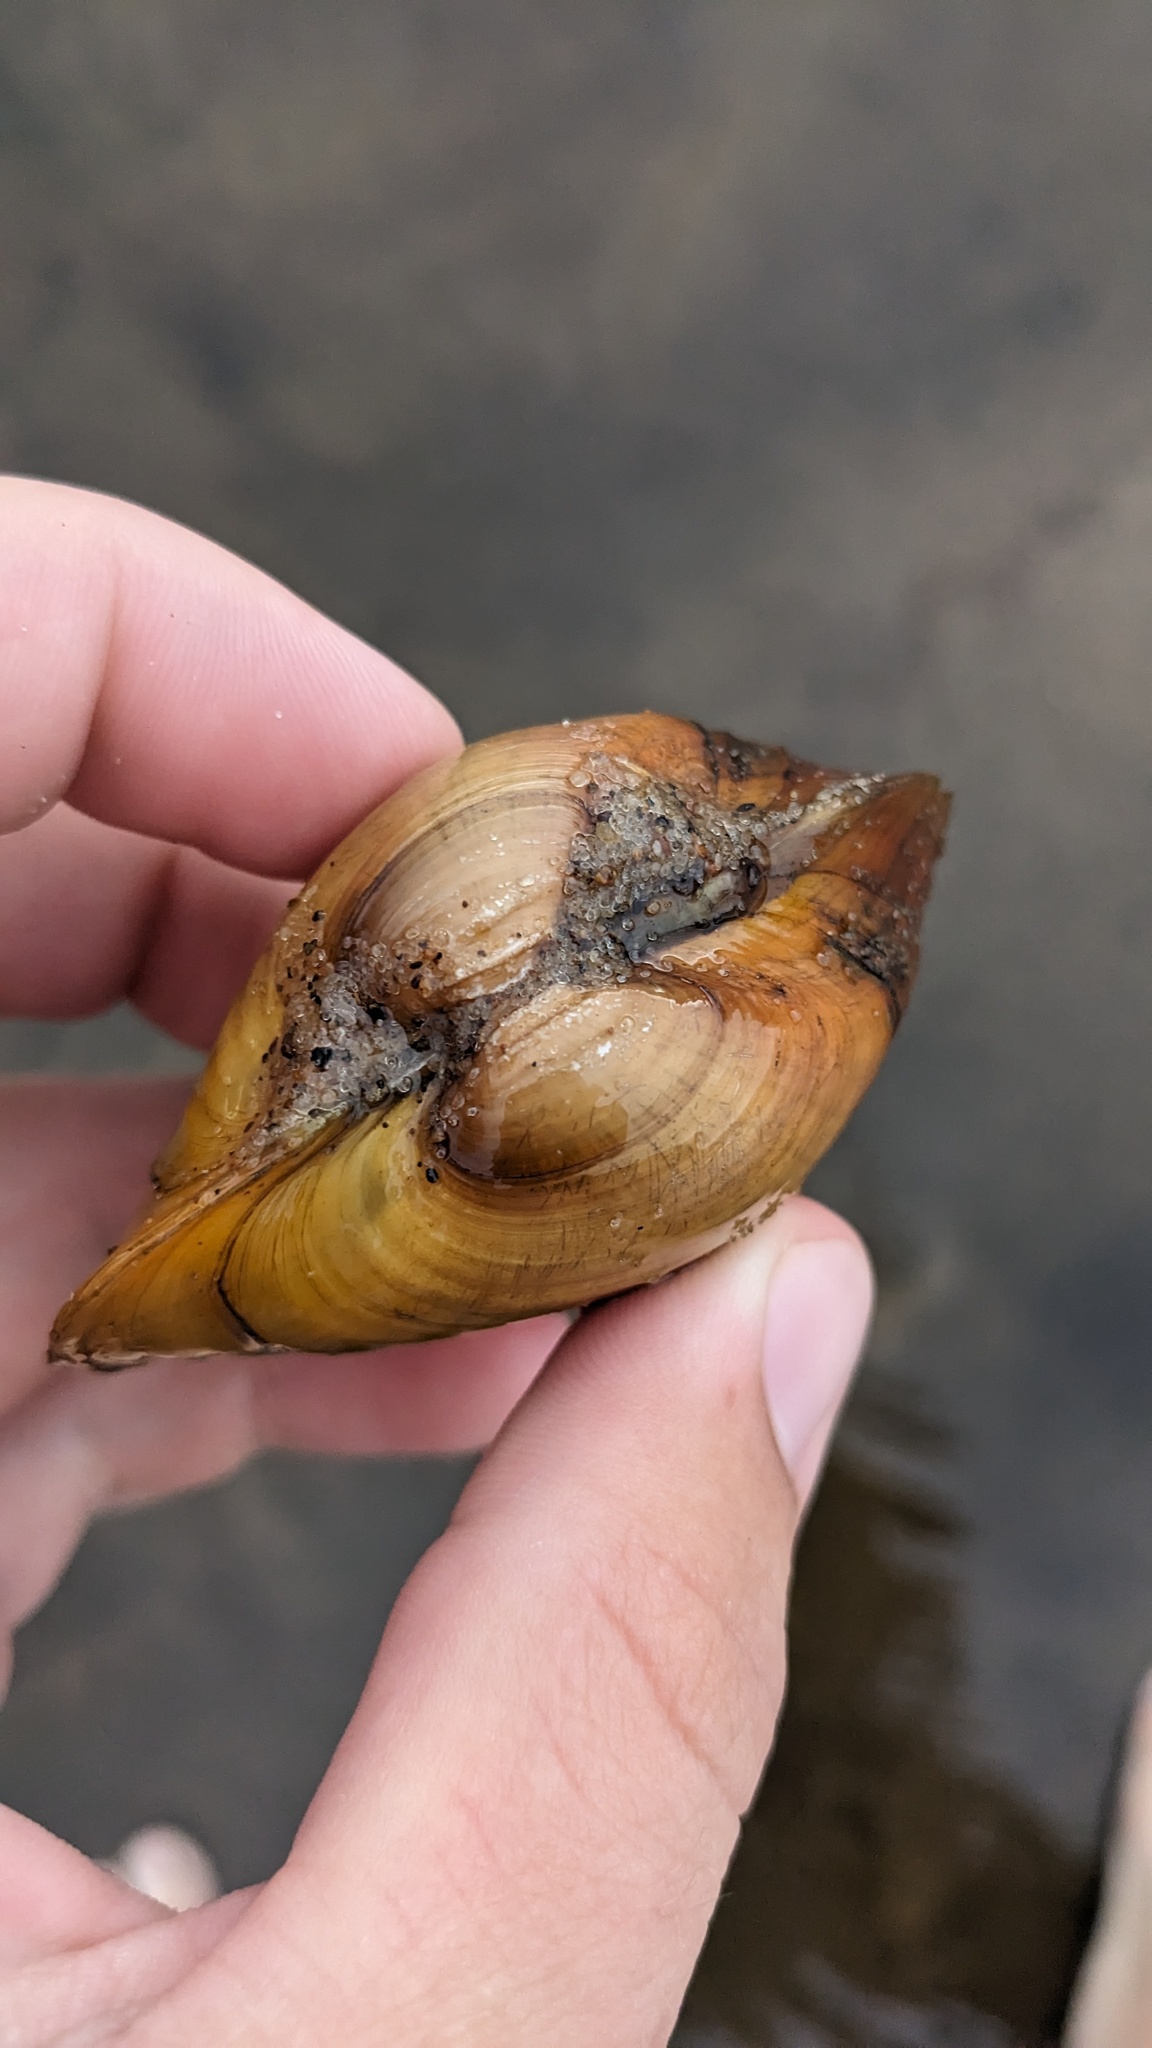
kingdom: Animalia
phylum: Mollusca
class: Bivalvia
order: Unionida
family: Unionidae
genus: Lampsilis
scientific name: Lampsilis cardium
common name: Plain pocketbook
